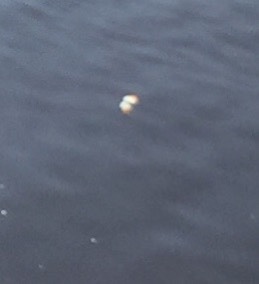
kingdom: Animalia
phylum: Arthropoda
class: Insecta
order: Lepidoptera
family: Pieridae
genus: Anthocharis
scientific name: Anthocharis cardamines
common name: Orange-tip
